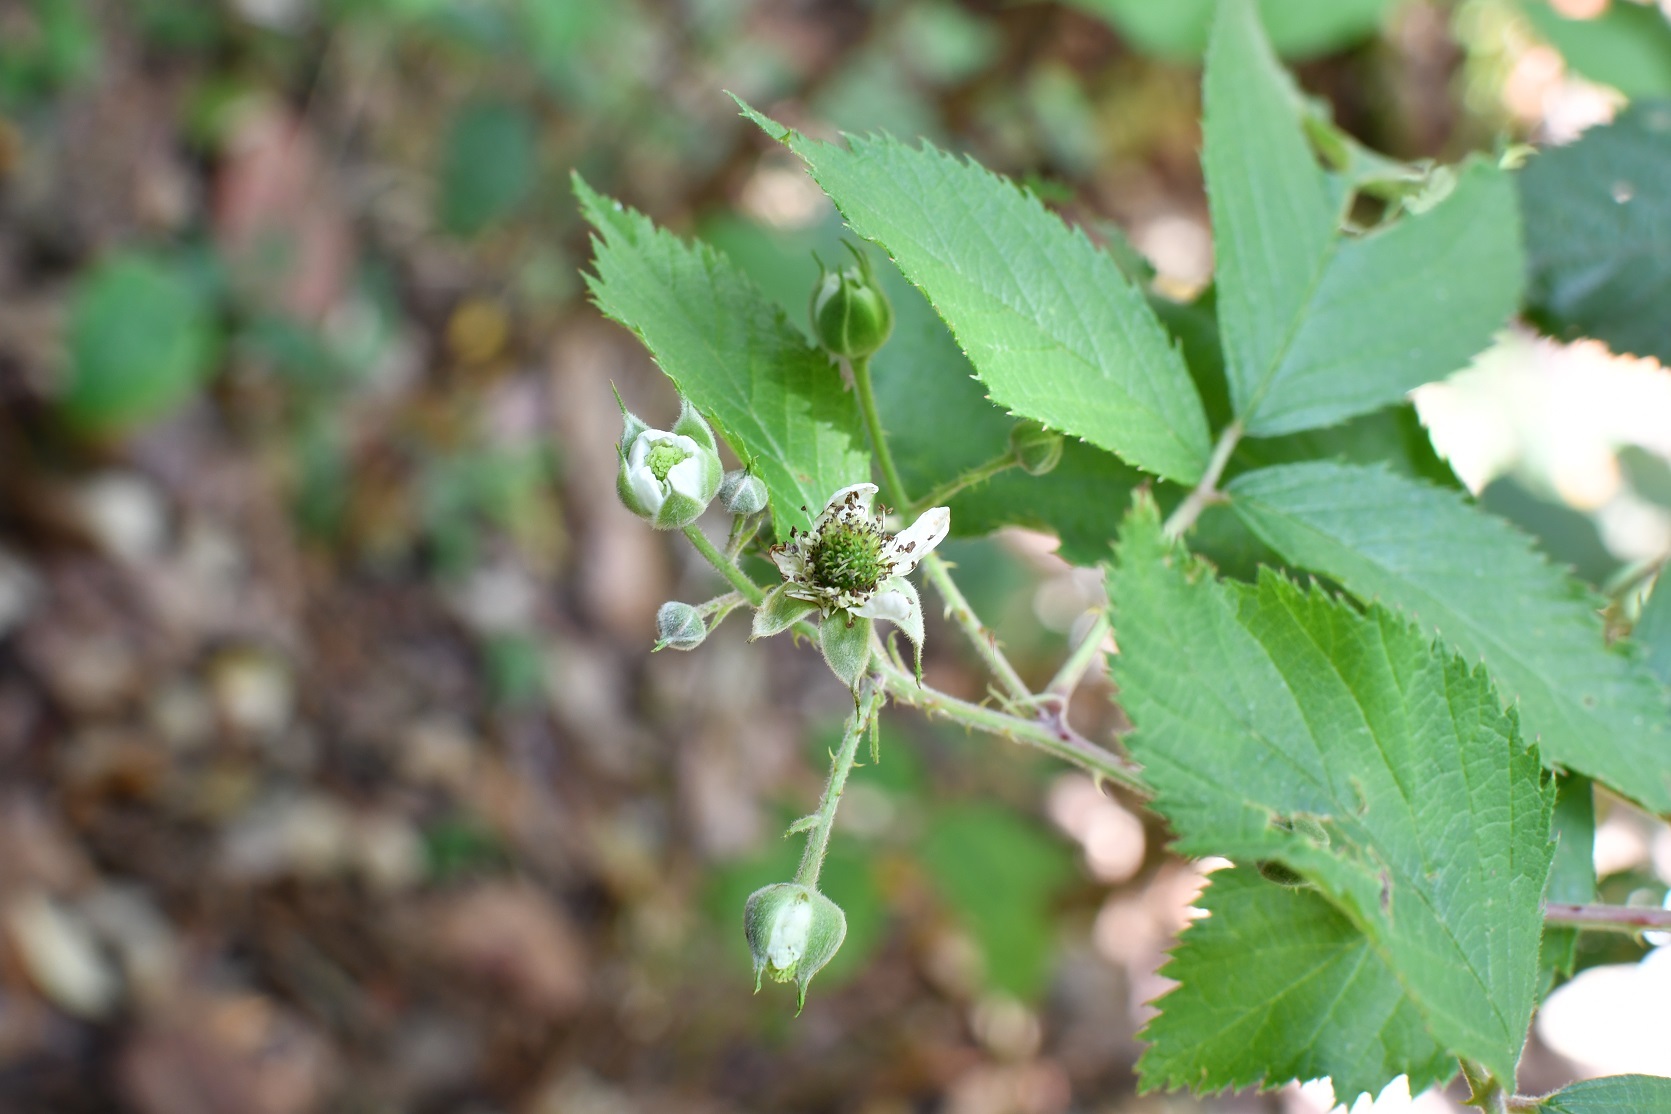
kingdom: Plantae
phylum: Tracheophyta
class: Magnoliopsida
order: Rosales
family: Rosaceae
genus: Rubus
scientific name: Rubus sapidus
